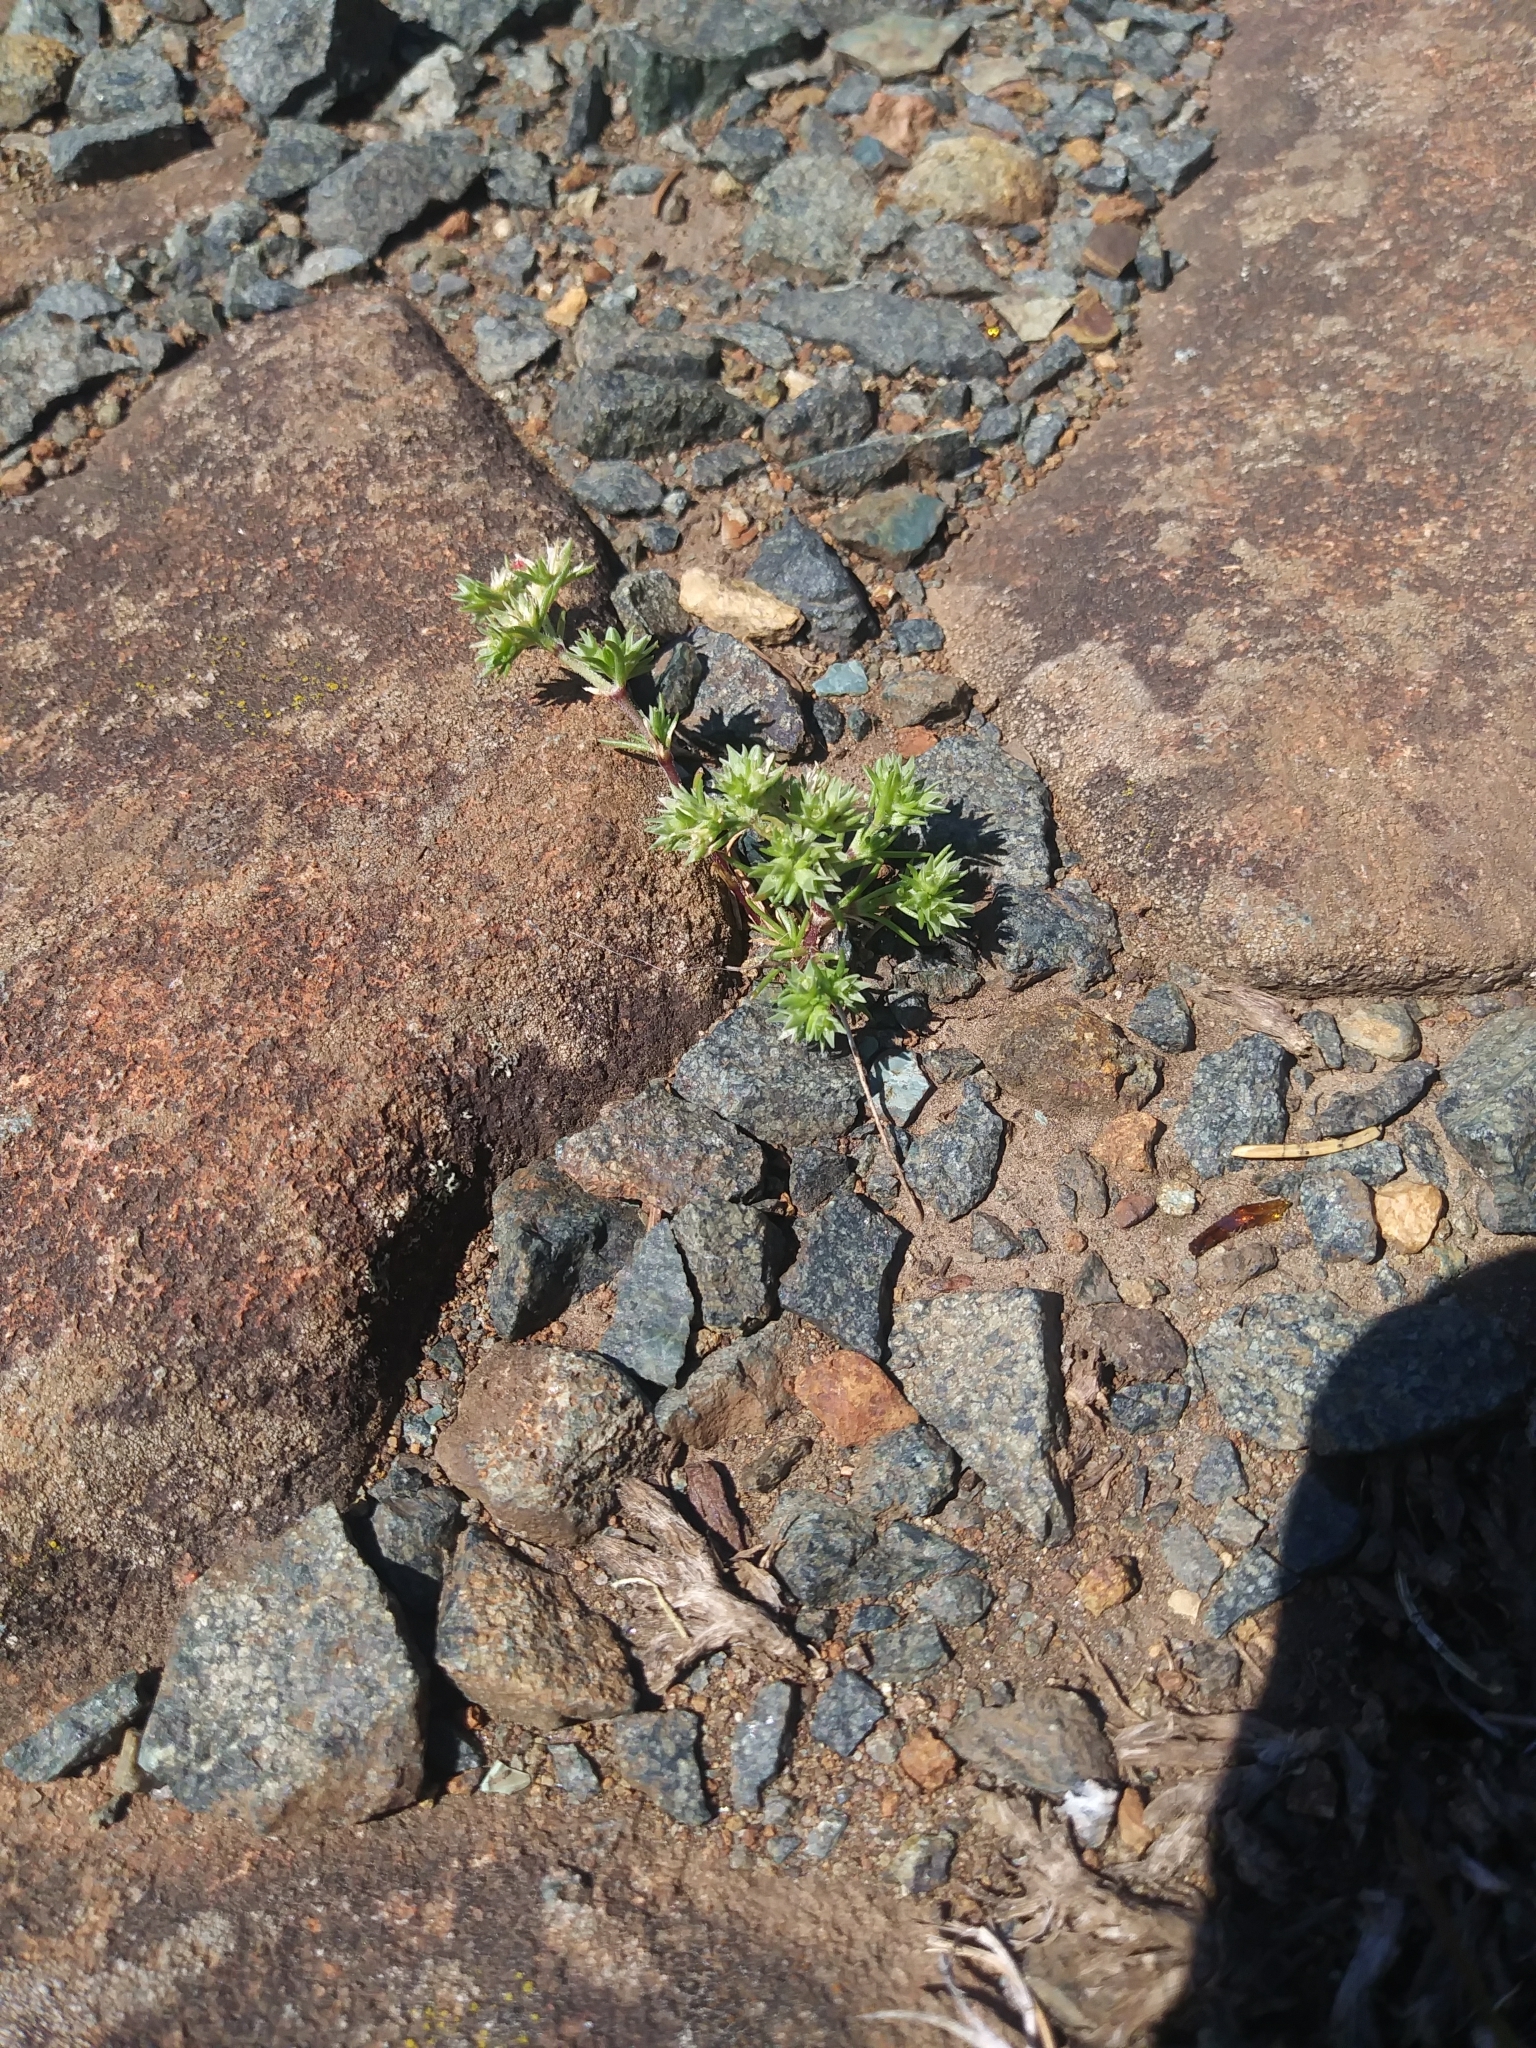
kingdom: Plantae
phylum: Tracheophyta
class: Magnoliopsida
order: Caryophyllales
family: Caryophyllaceae
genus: Scleranthus
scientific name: Scleranthus annuus
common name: Annual knawel
